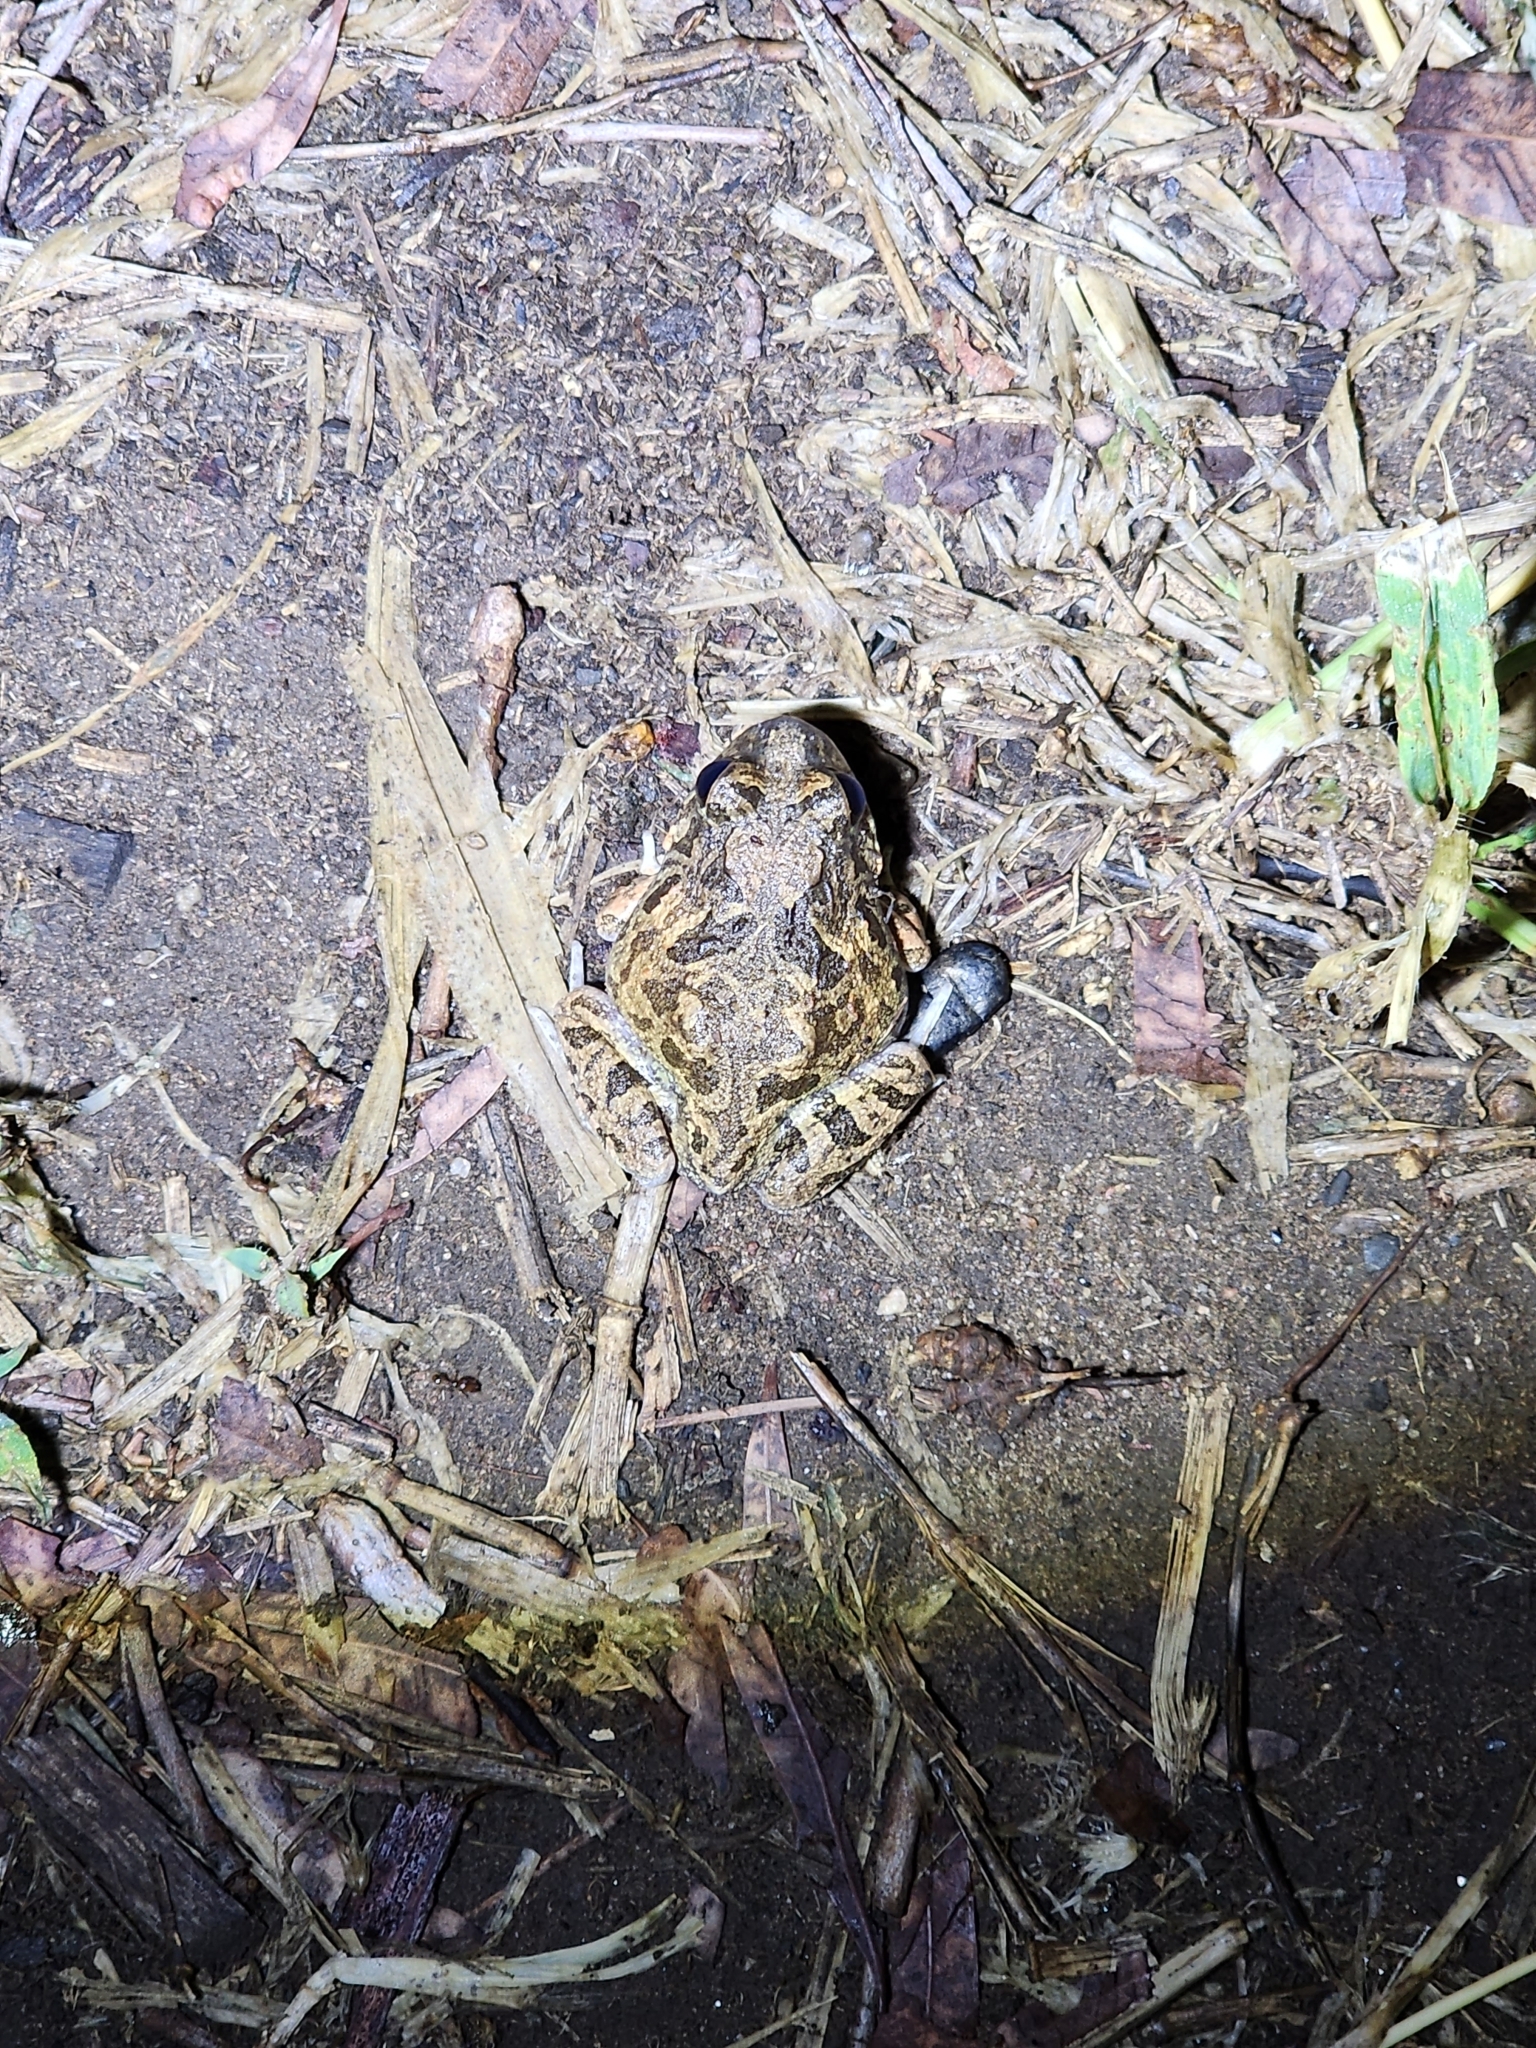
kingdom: Animalia
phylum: Chordata
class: Amphibia
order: Anura
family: Limnodynastidae
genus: Platyplectrum
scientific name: Platyplectrum ornatum
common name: Ornate burrowing frog
